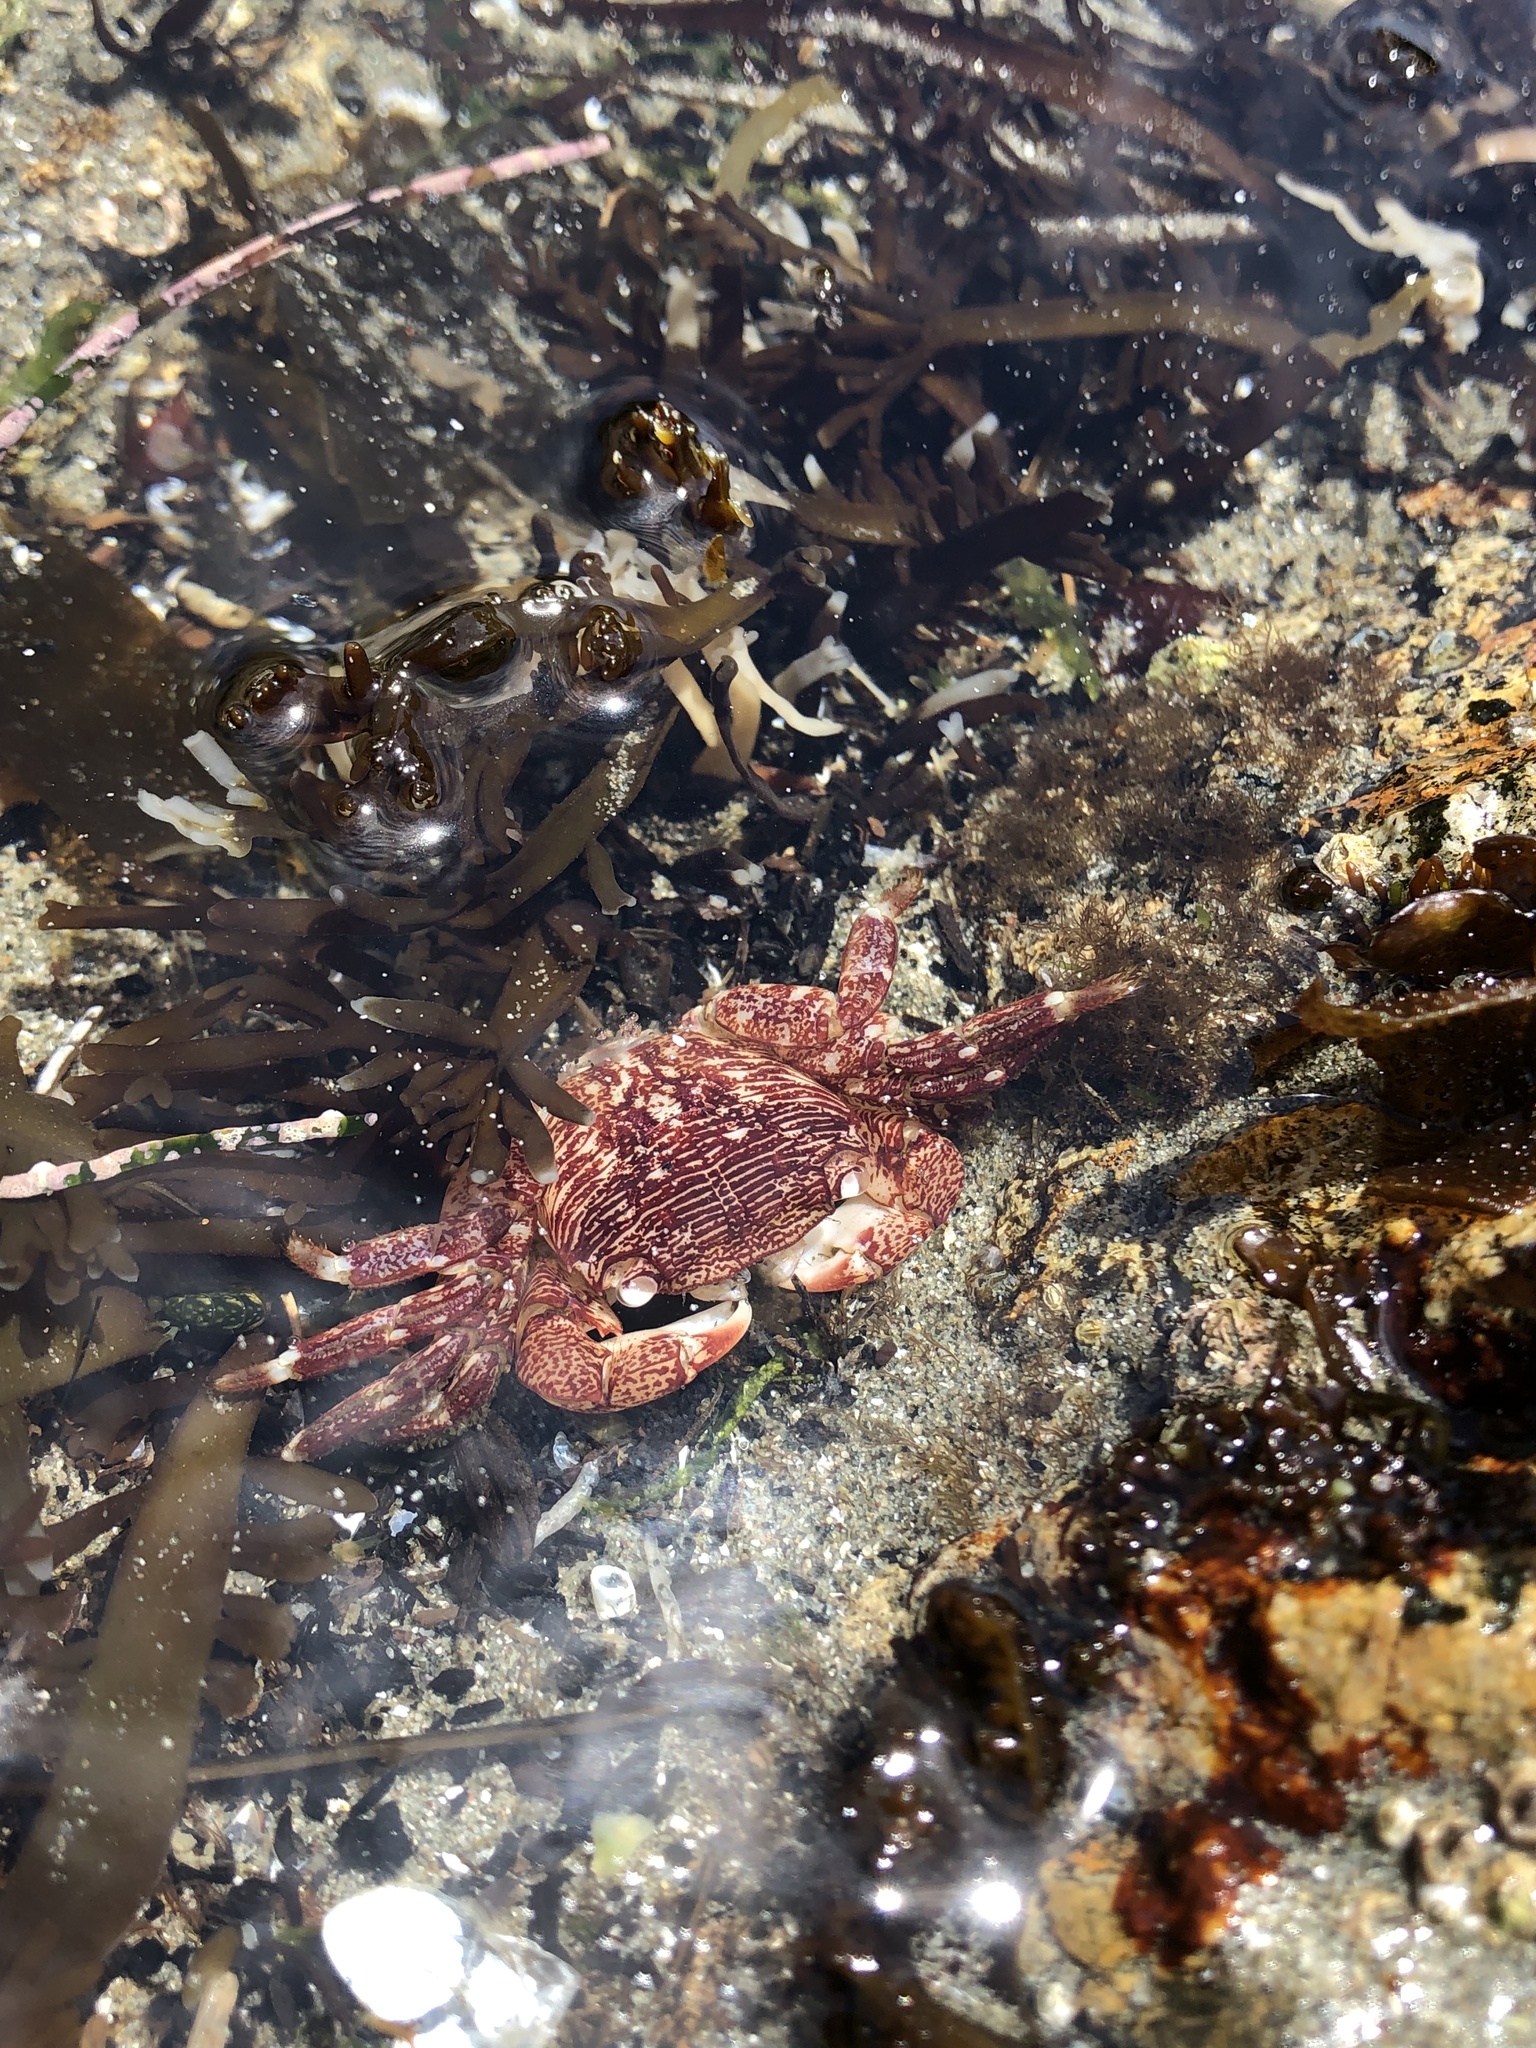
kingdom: Animalia
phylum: Arthropoda
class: Malacostraca
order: Decapoda
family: Grapsidae
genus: Pachygrapsus
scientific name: Pachygrapsus crassipes
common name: Striped shore crab
